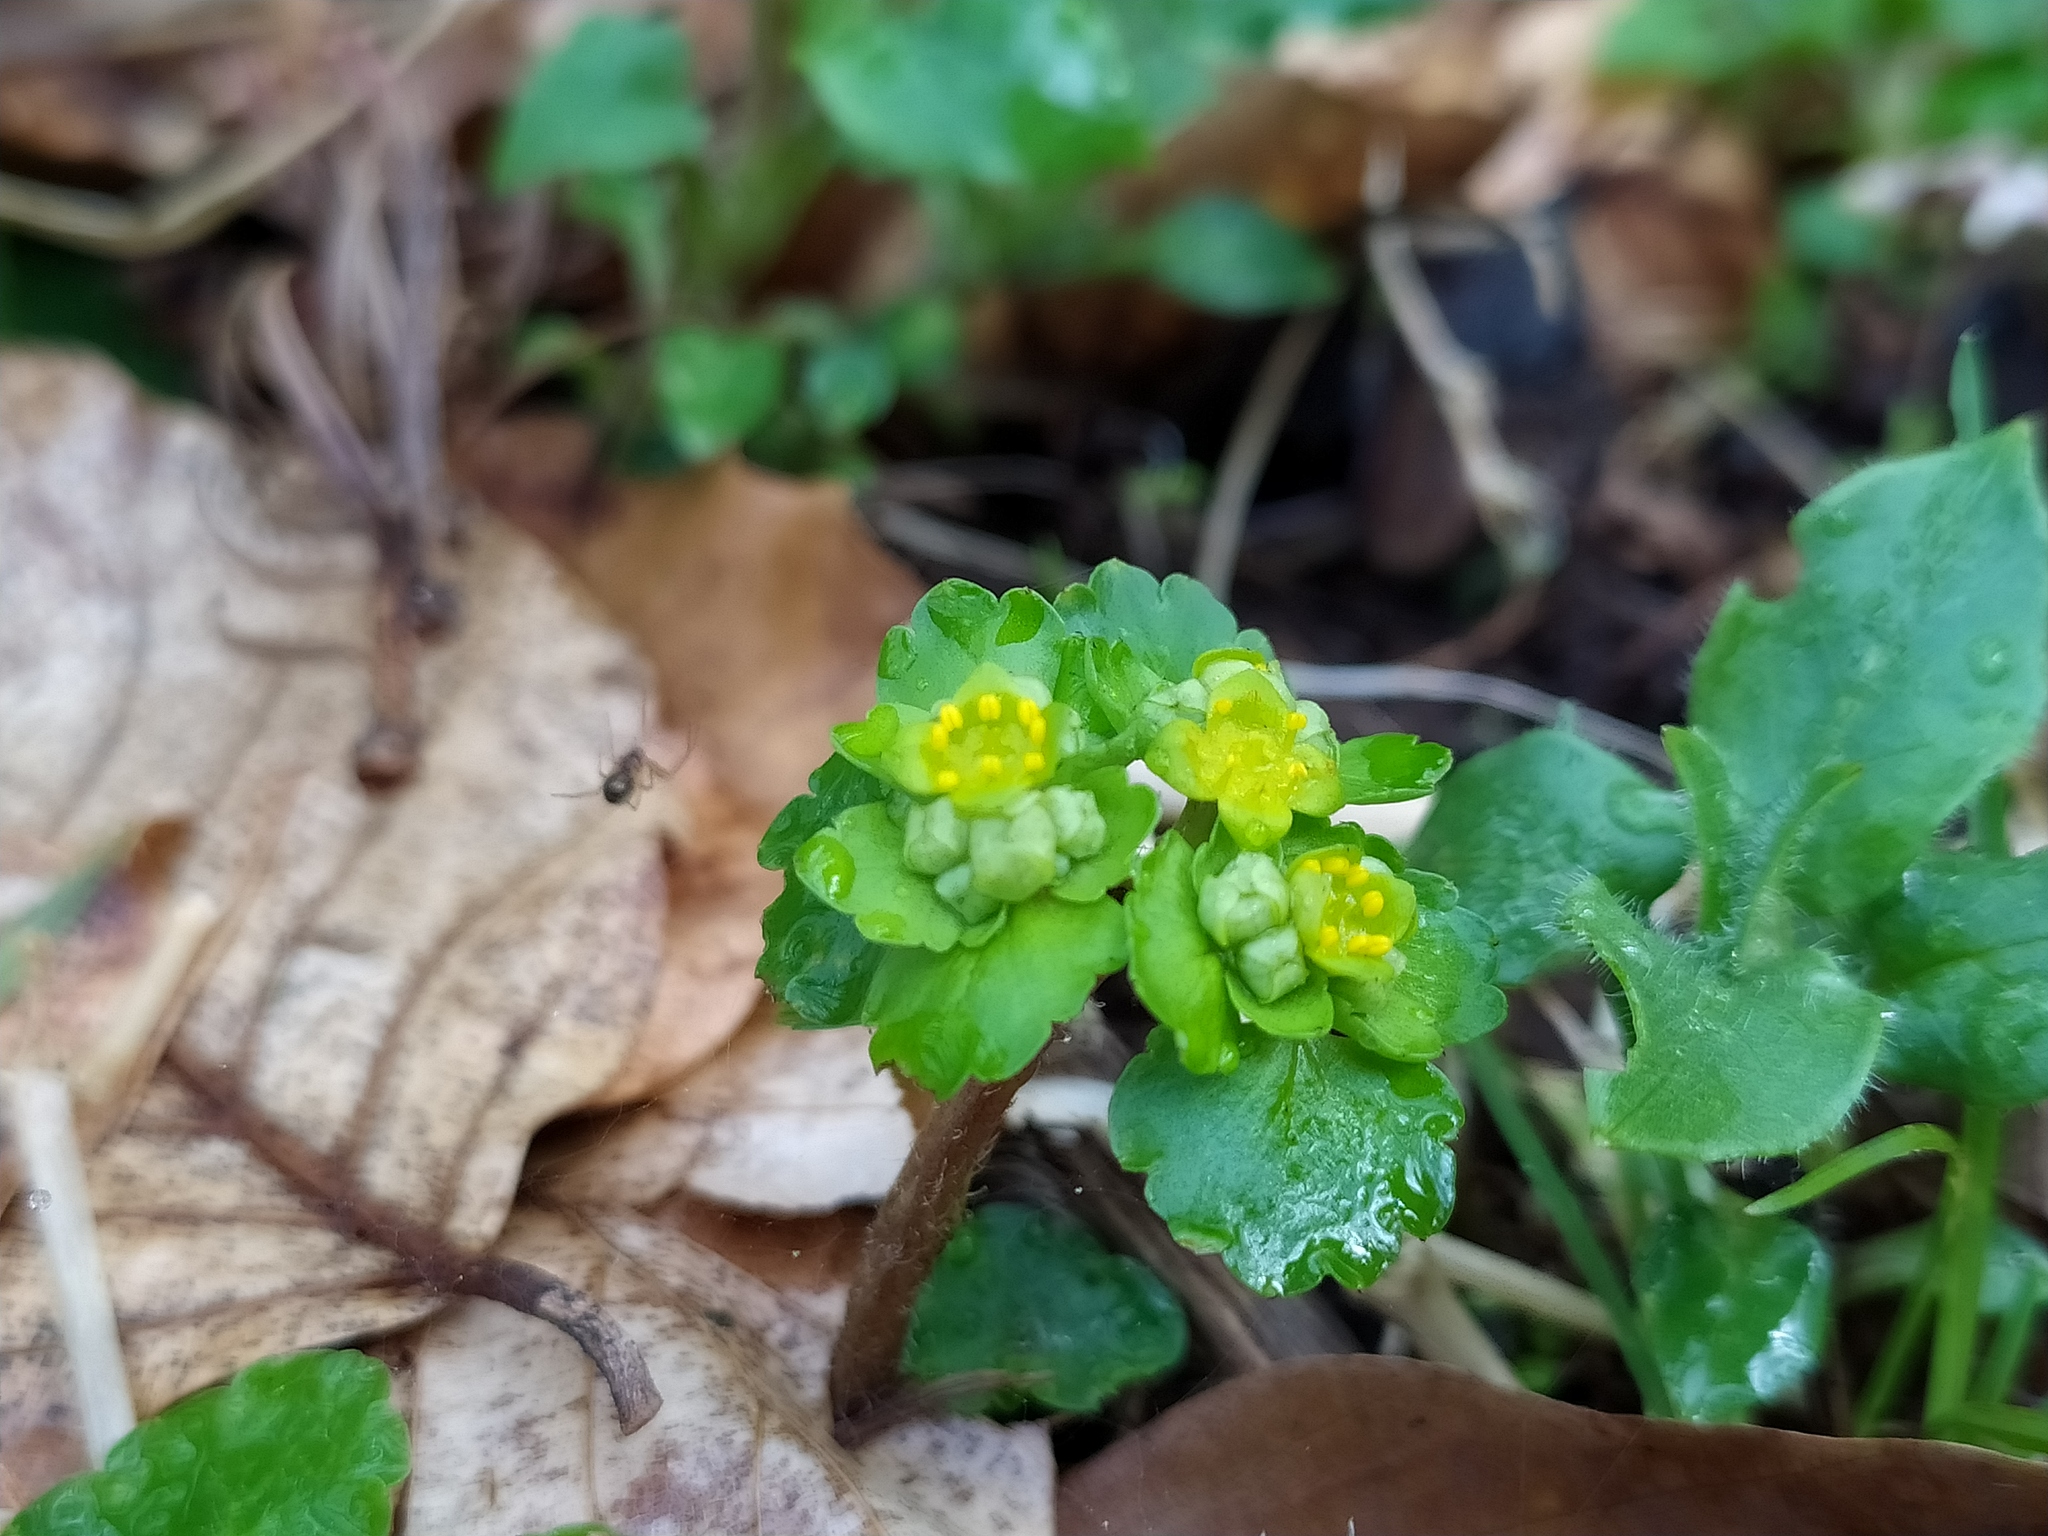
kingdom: Plantae
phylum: Tracheophyta
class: Magnoliopsida
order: Saxifragales
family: Saxifragaceae
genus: Chrysosplenium
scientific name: Chrysosplenium alternifolium
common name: Alternate-leaved golden-saxifrage
